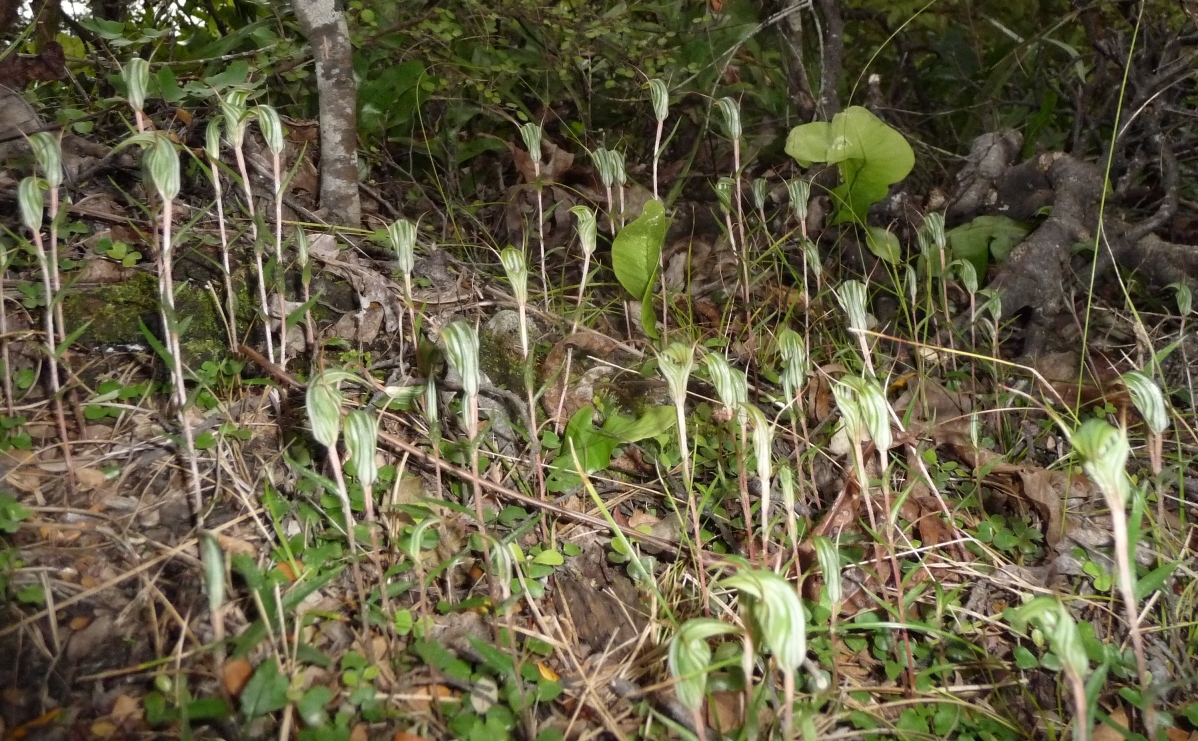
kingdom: Plantae
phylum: Tracheophyta
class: Liliopsida
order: Asparagales
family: Orchidaceae
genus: Pterostylis
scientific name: Pterostylis alobula
